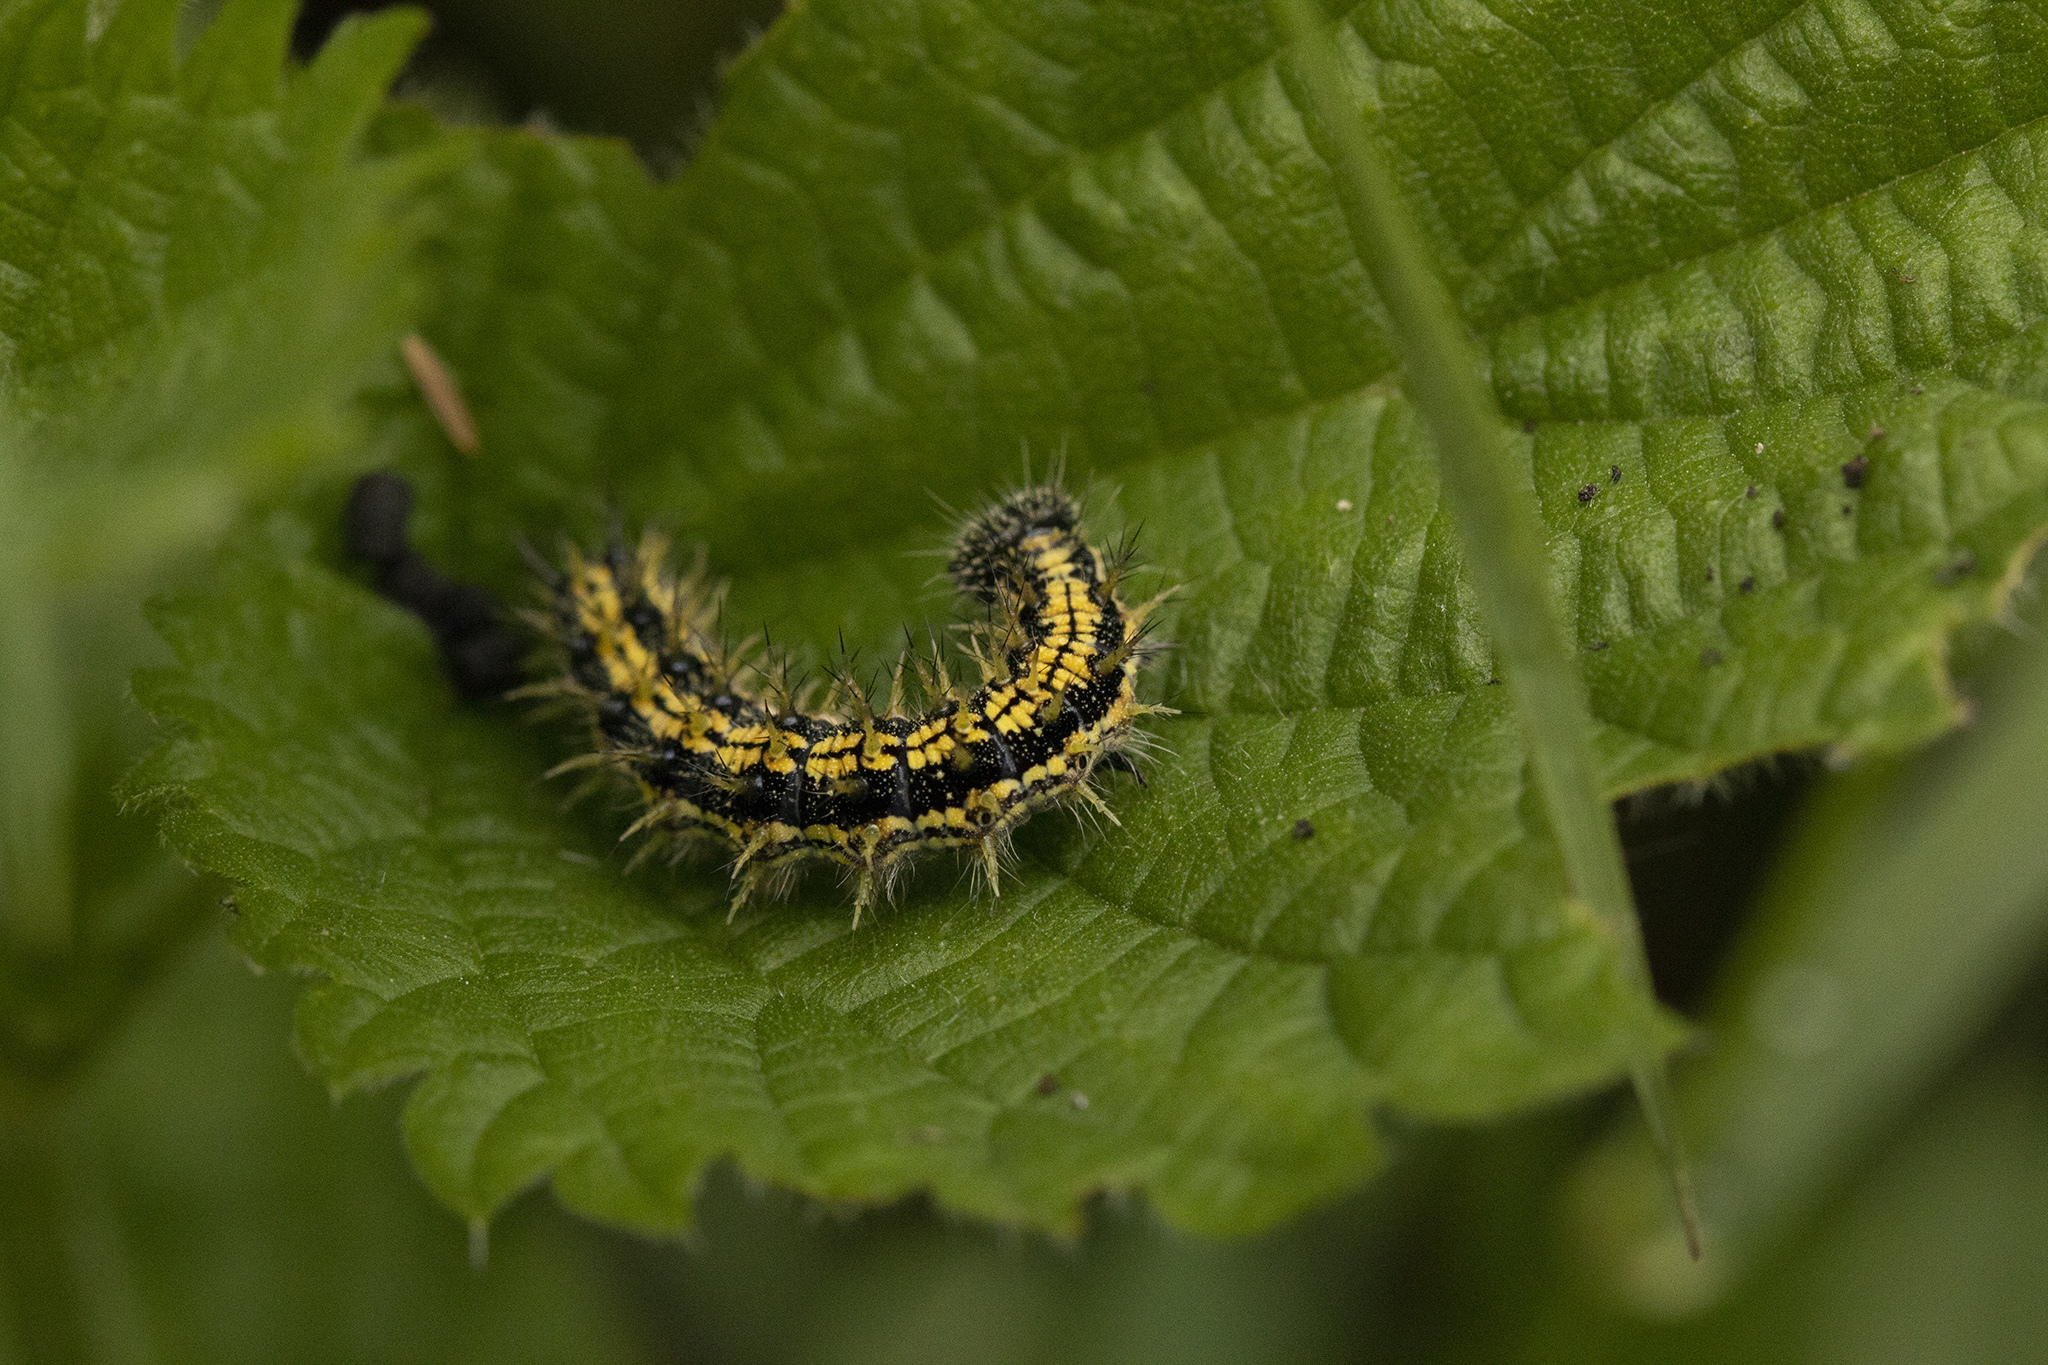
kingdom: Animalia
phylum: Arthropoda
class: Insecta
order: Lepidoptera
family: Nymphalidae
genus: Aglais
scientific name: Aglais urticae
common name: Small tortoiseshell
